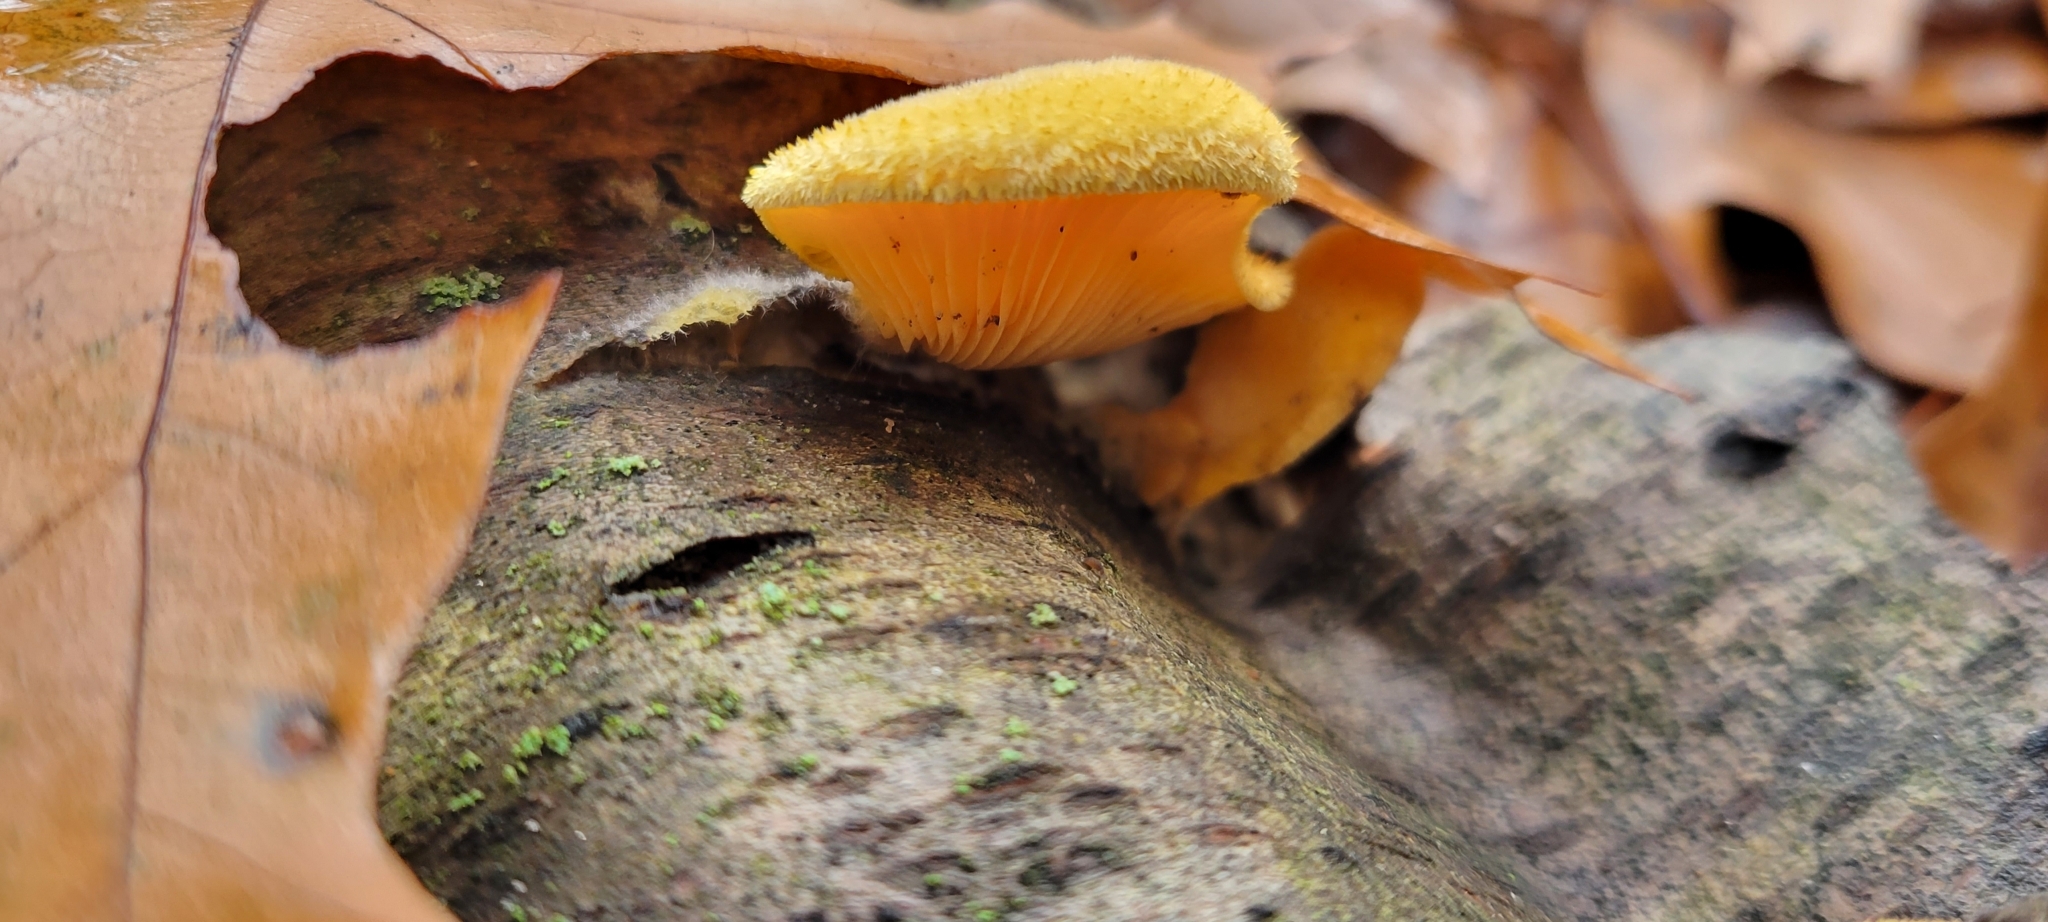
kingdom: Fungi
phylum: Basidiomycota
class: Agaricomycetes
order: Agaricales
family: Phyllotopsidaceae
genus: Phyllotopsis
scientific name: Phyllotopsis nidulans
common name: Orange mock oyster
